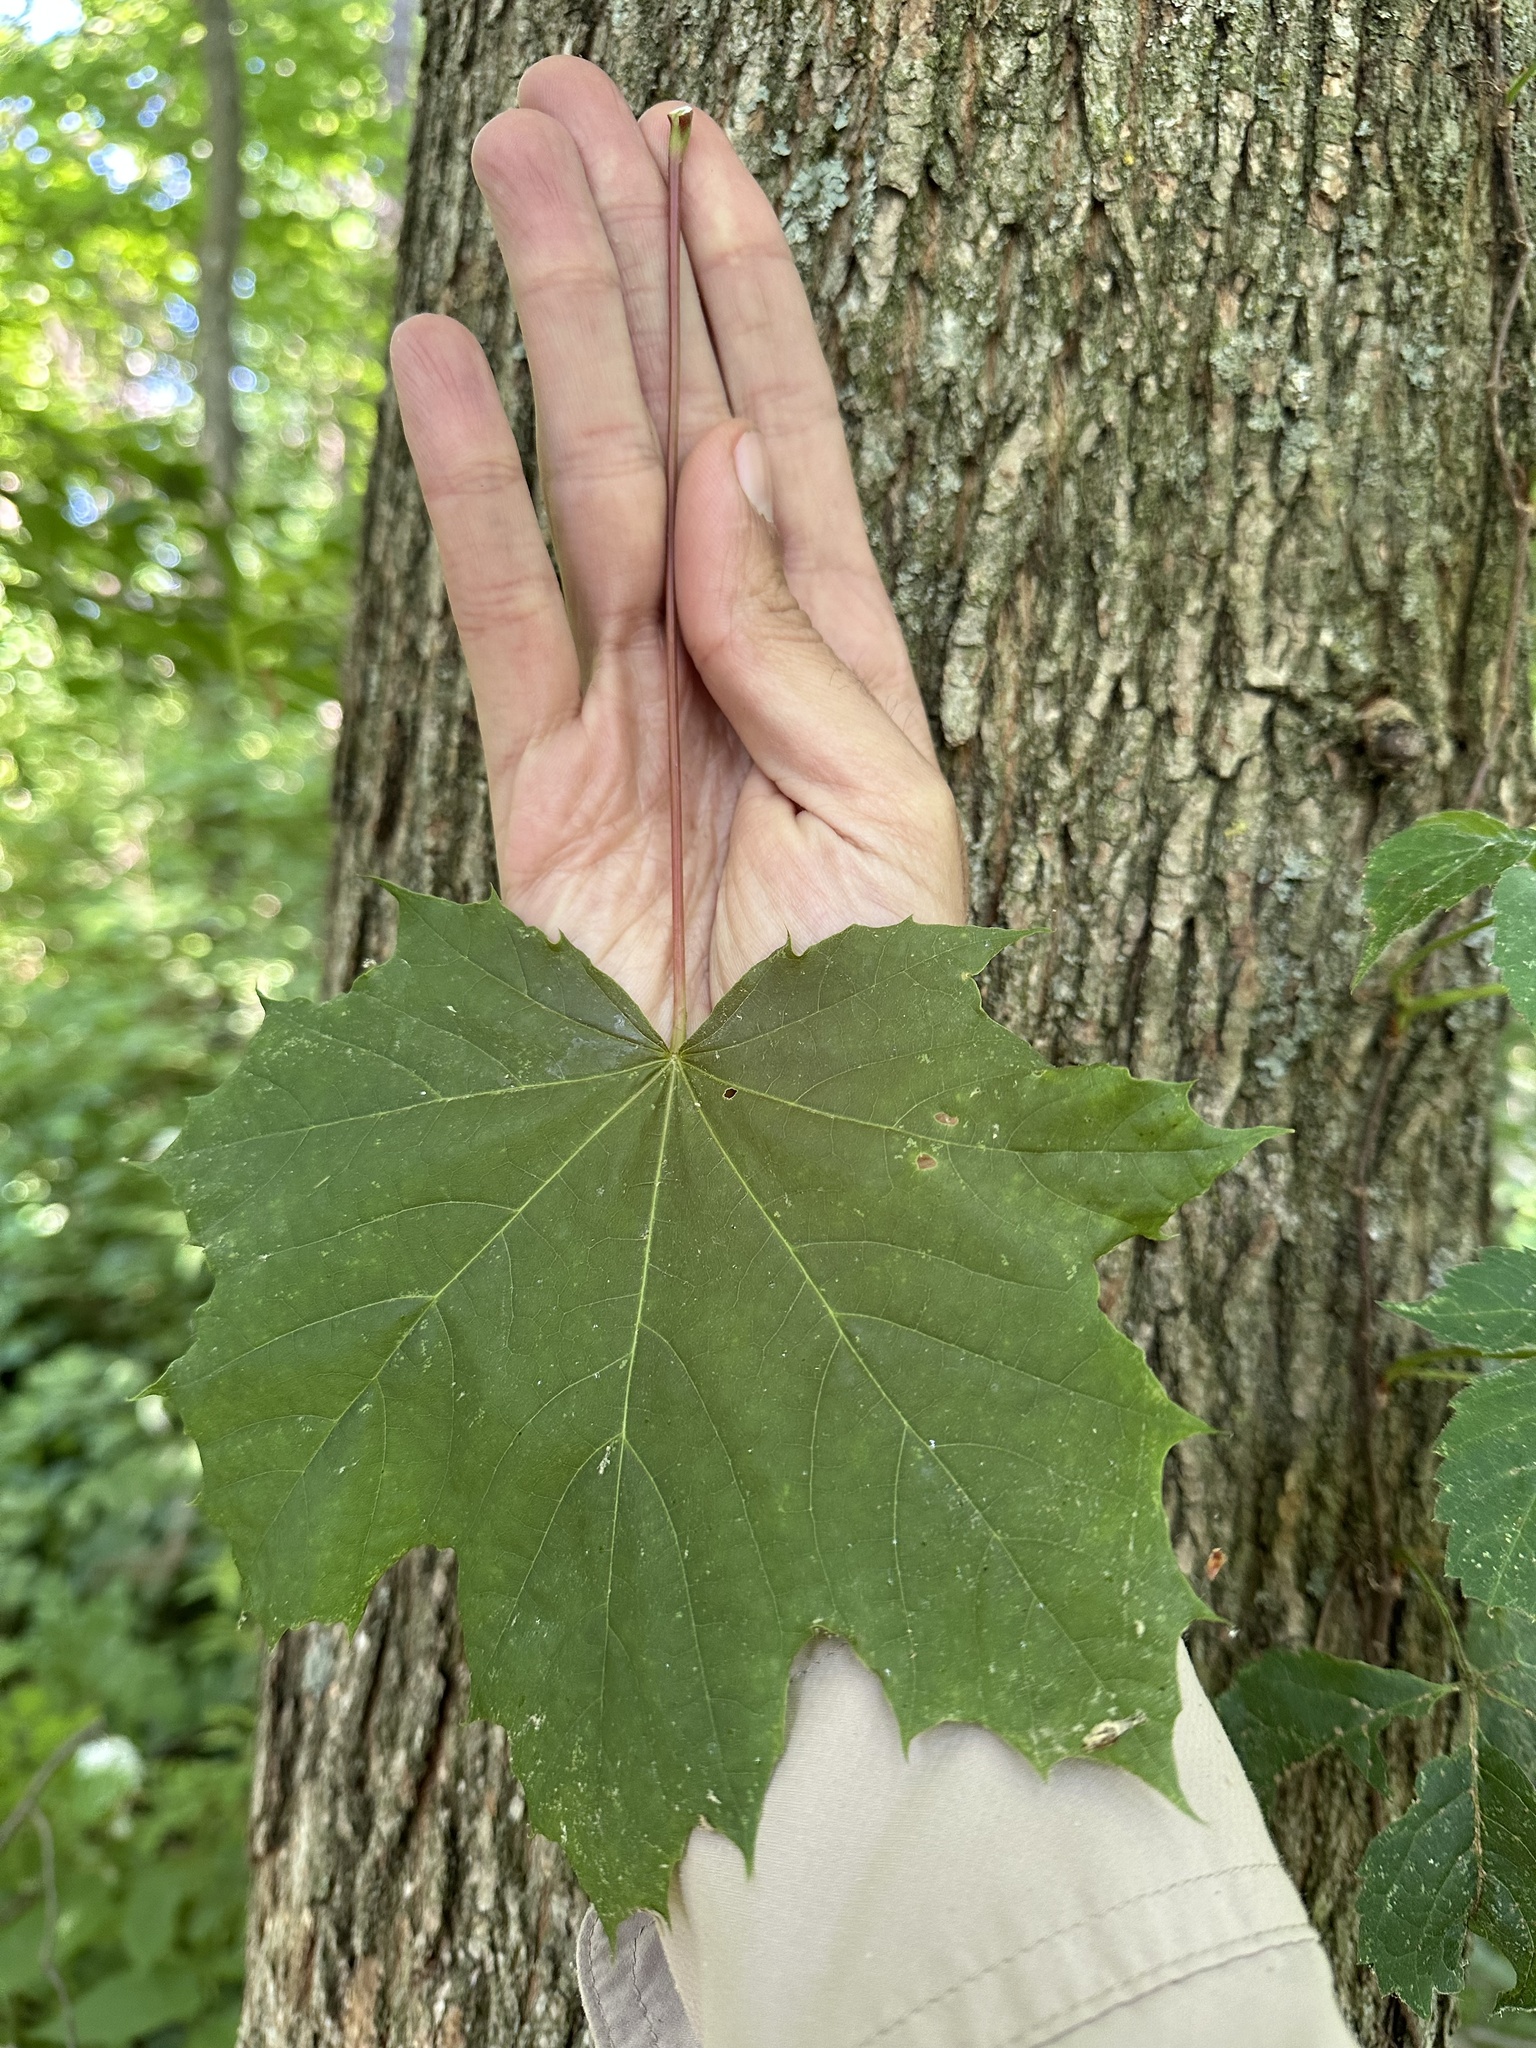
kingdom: Plantae
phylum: Tracheophyta
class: Magnoliopsida
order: Sapindales
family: Sapindaceae
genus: Acer
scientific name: Acer platanoides
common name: Norway maple
